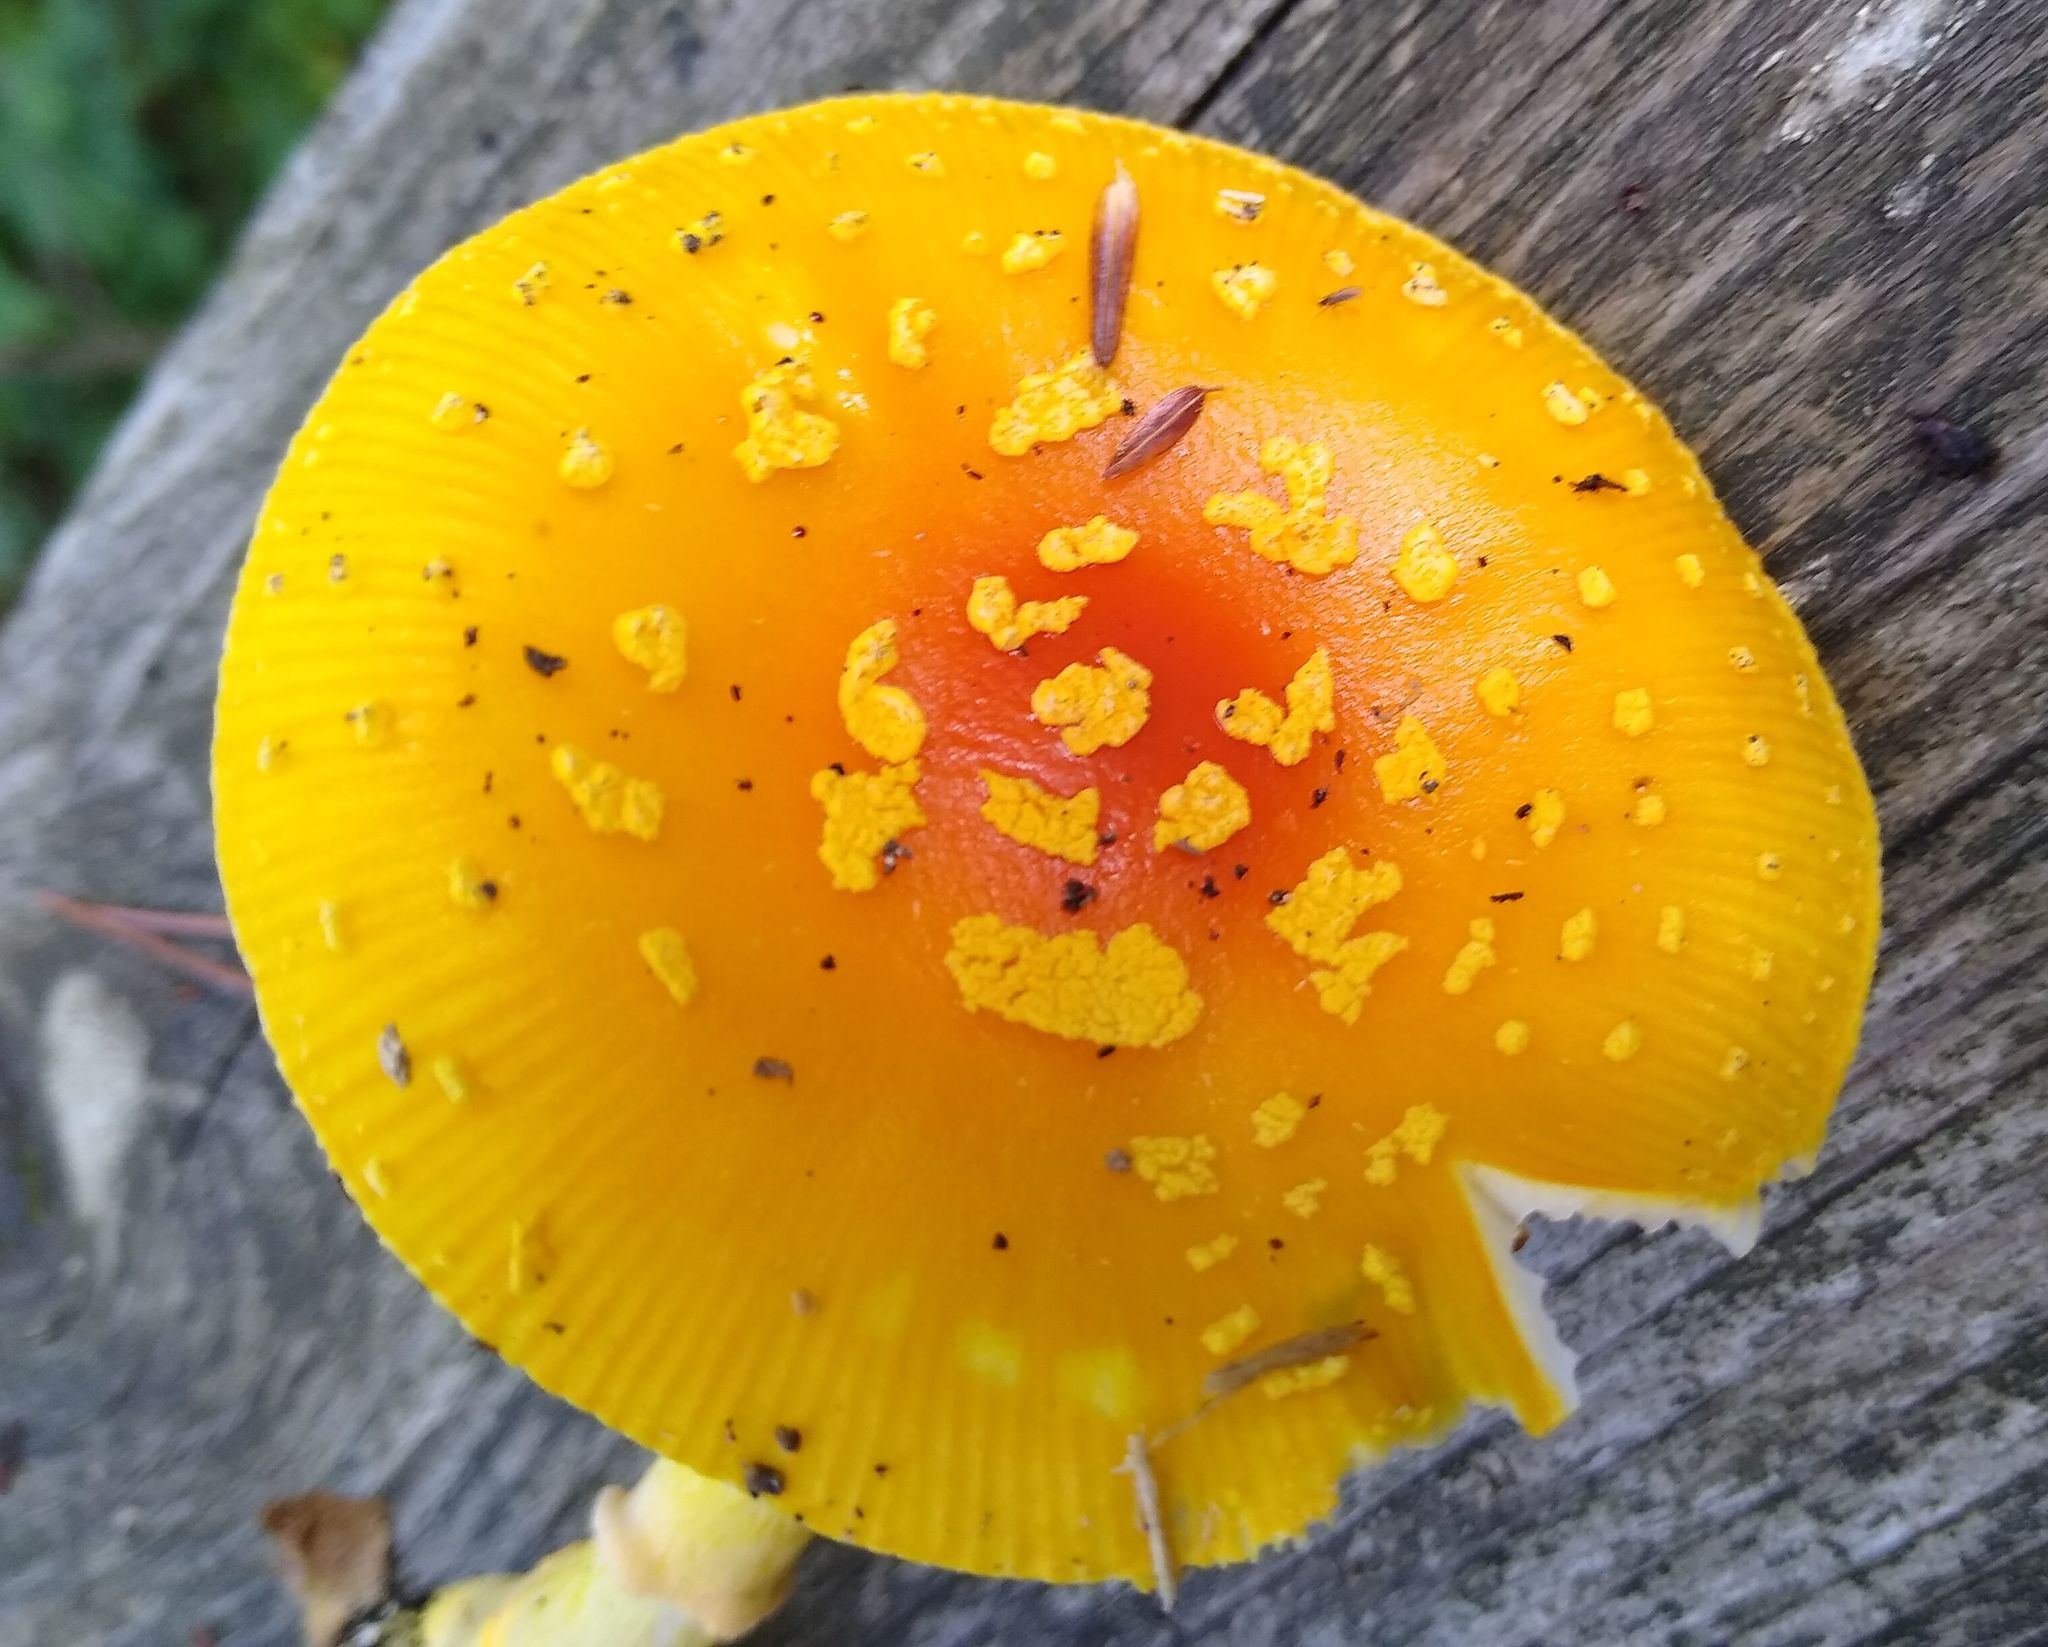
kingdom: Fungi
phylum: Basidiomycota
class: Agaricomycetes
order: Agaricales
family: Amanitaceae
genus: Amanita
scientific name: Amanita frostiana
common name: Frost's amanita
